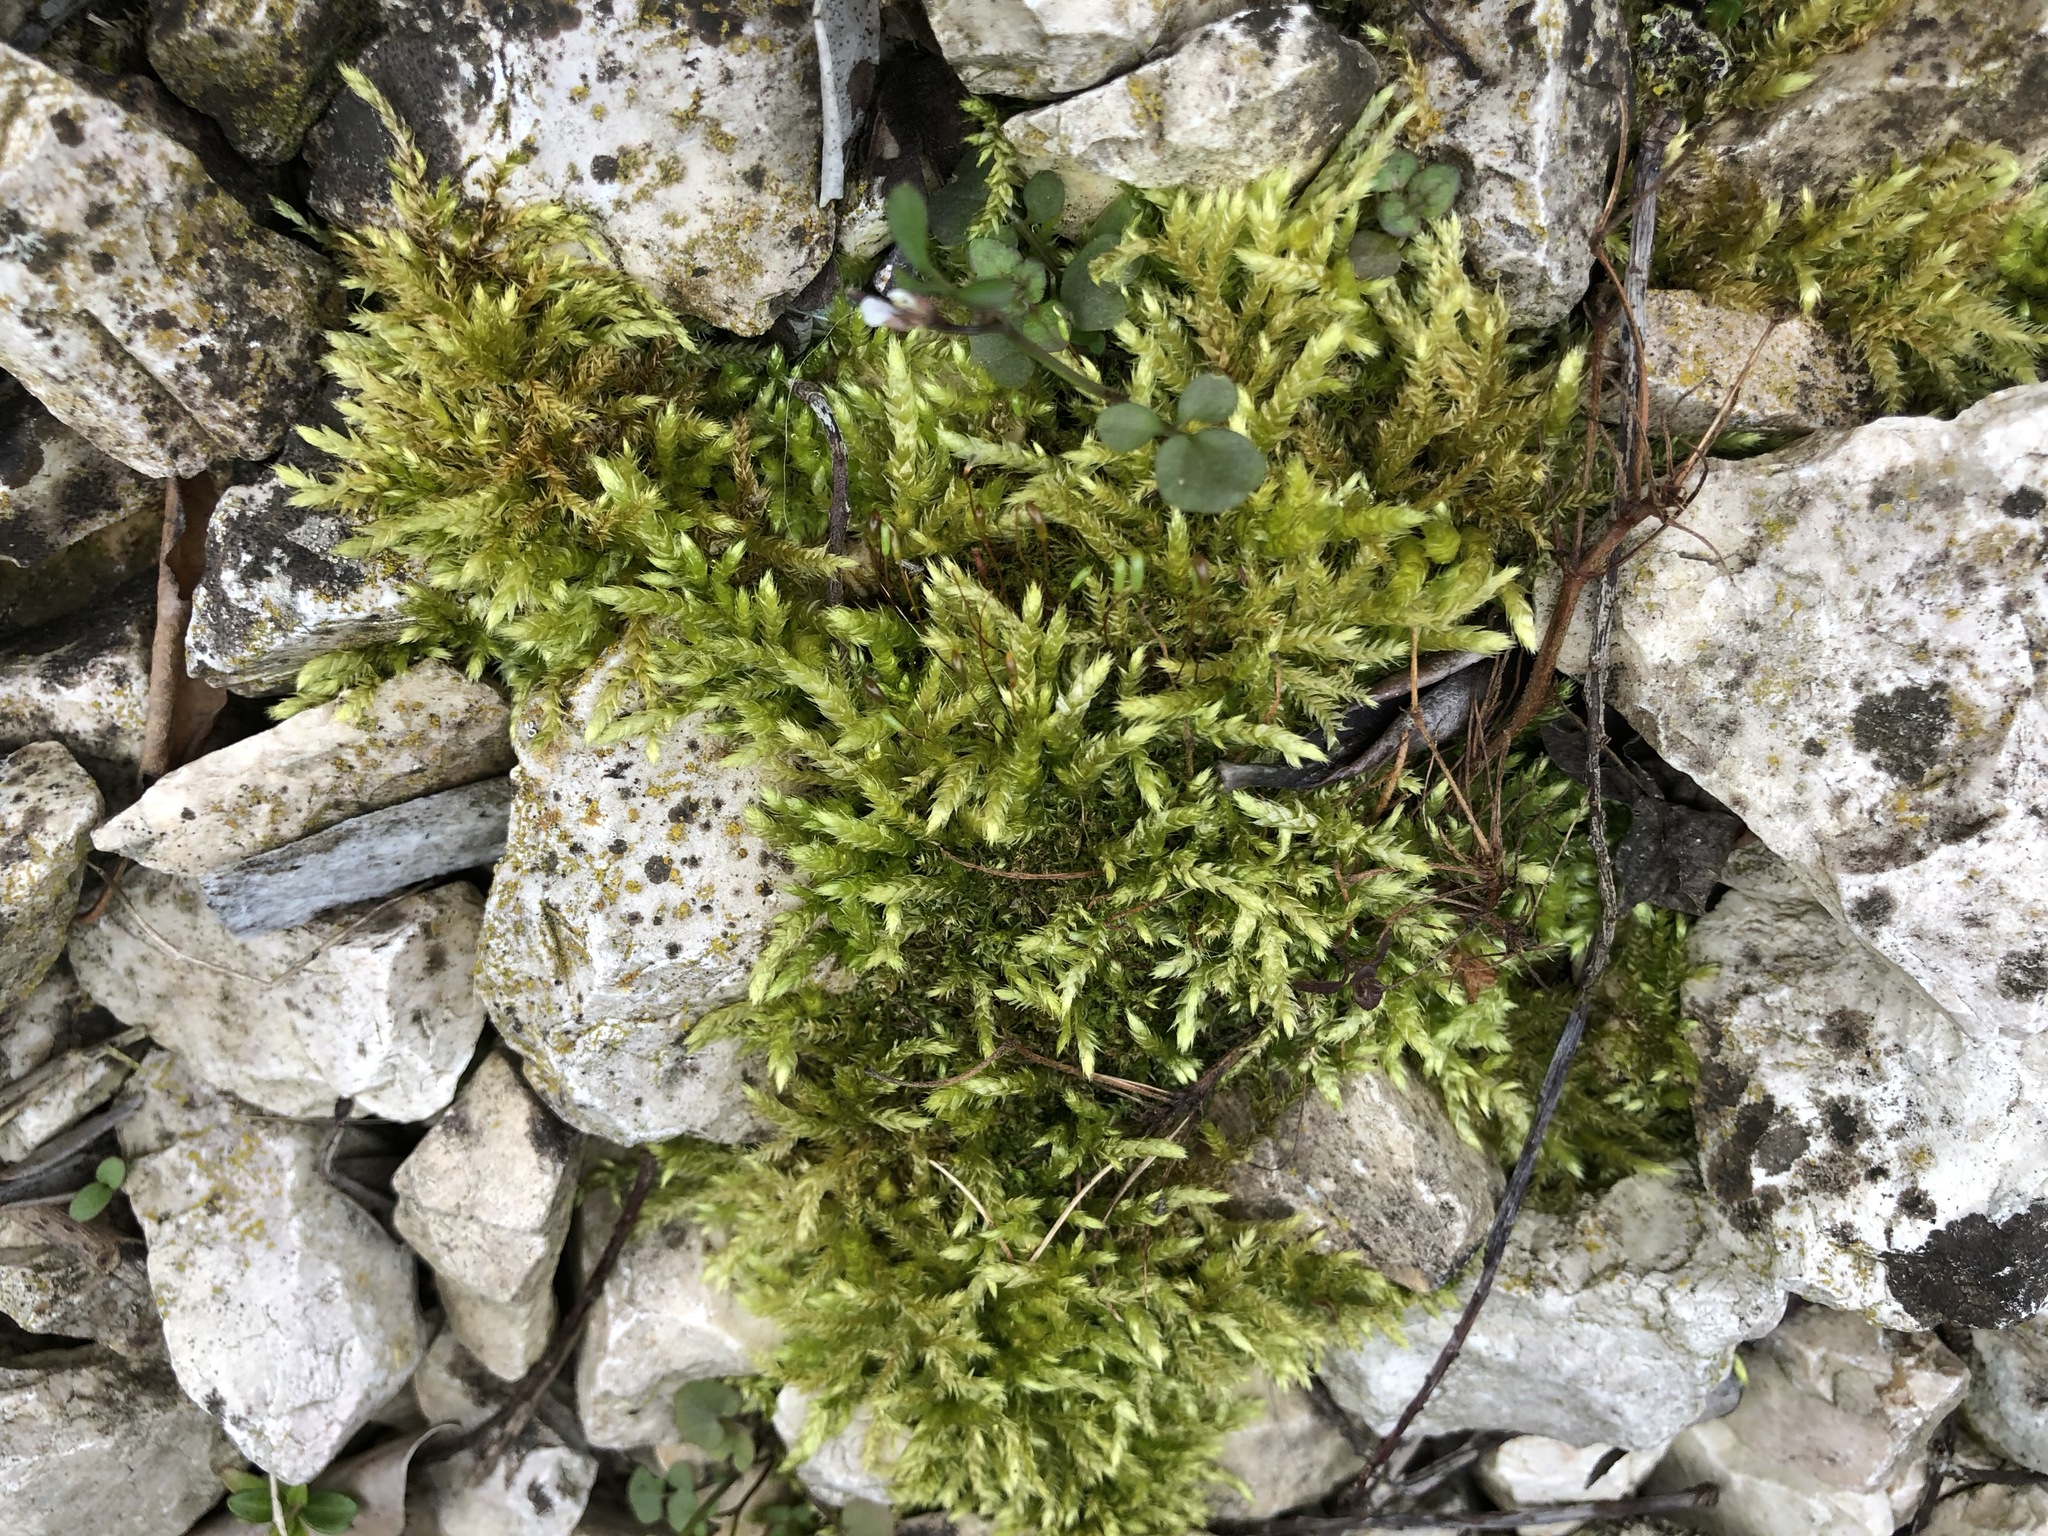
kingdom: Plantae
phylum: Bryophyta
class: Bryopsida
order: Hypnales
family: Hypnaceae
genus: Hypnum
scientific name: Hypnum cupressiforme
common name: Cypress-leaved plait-moss
